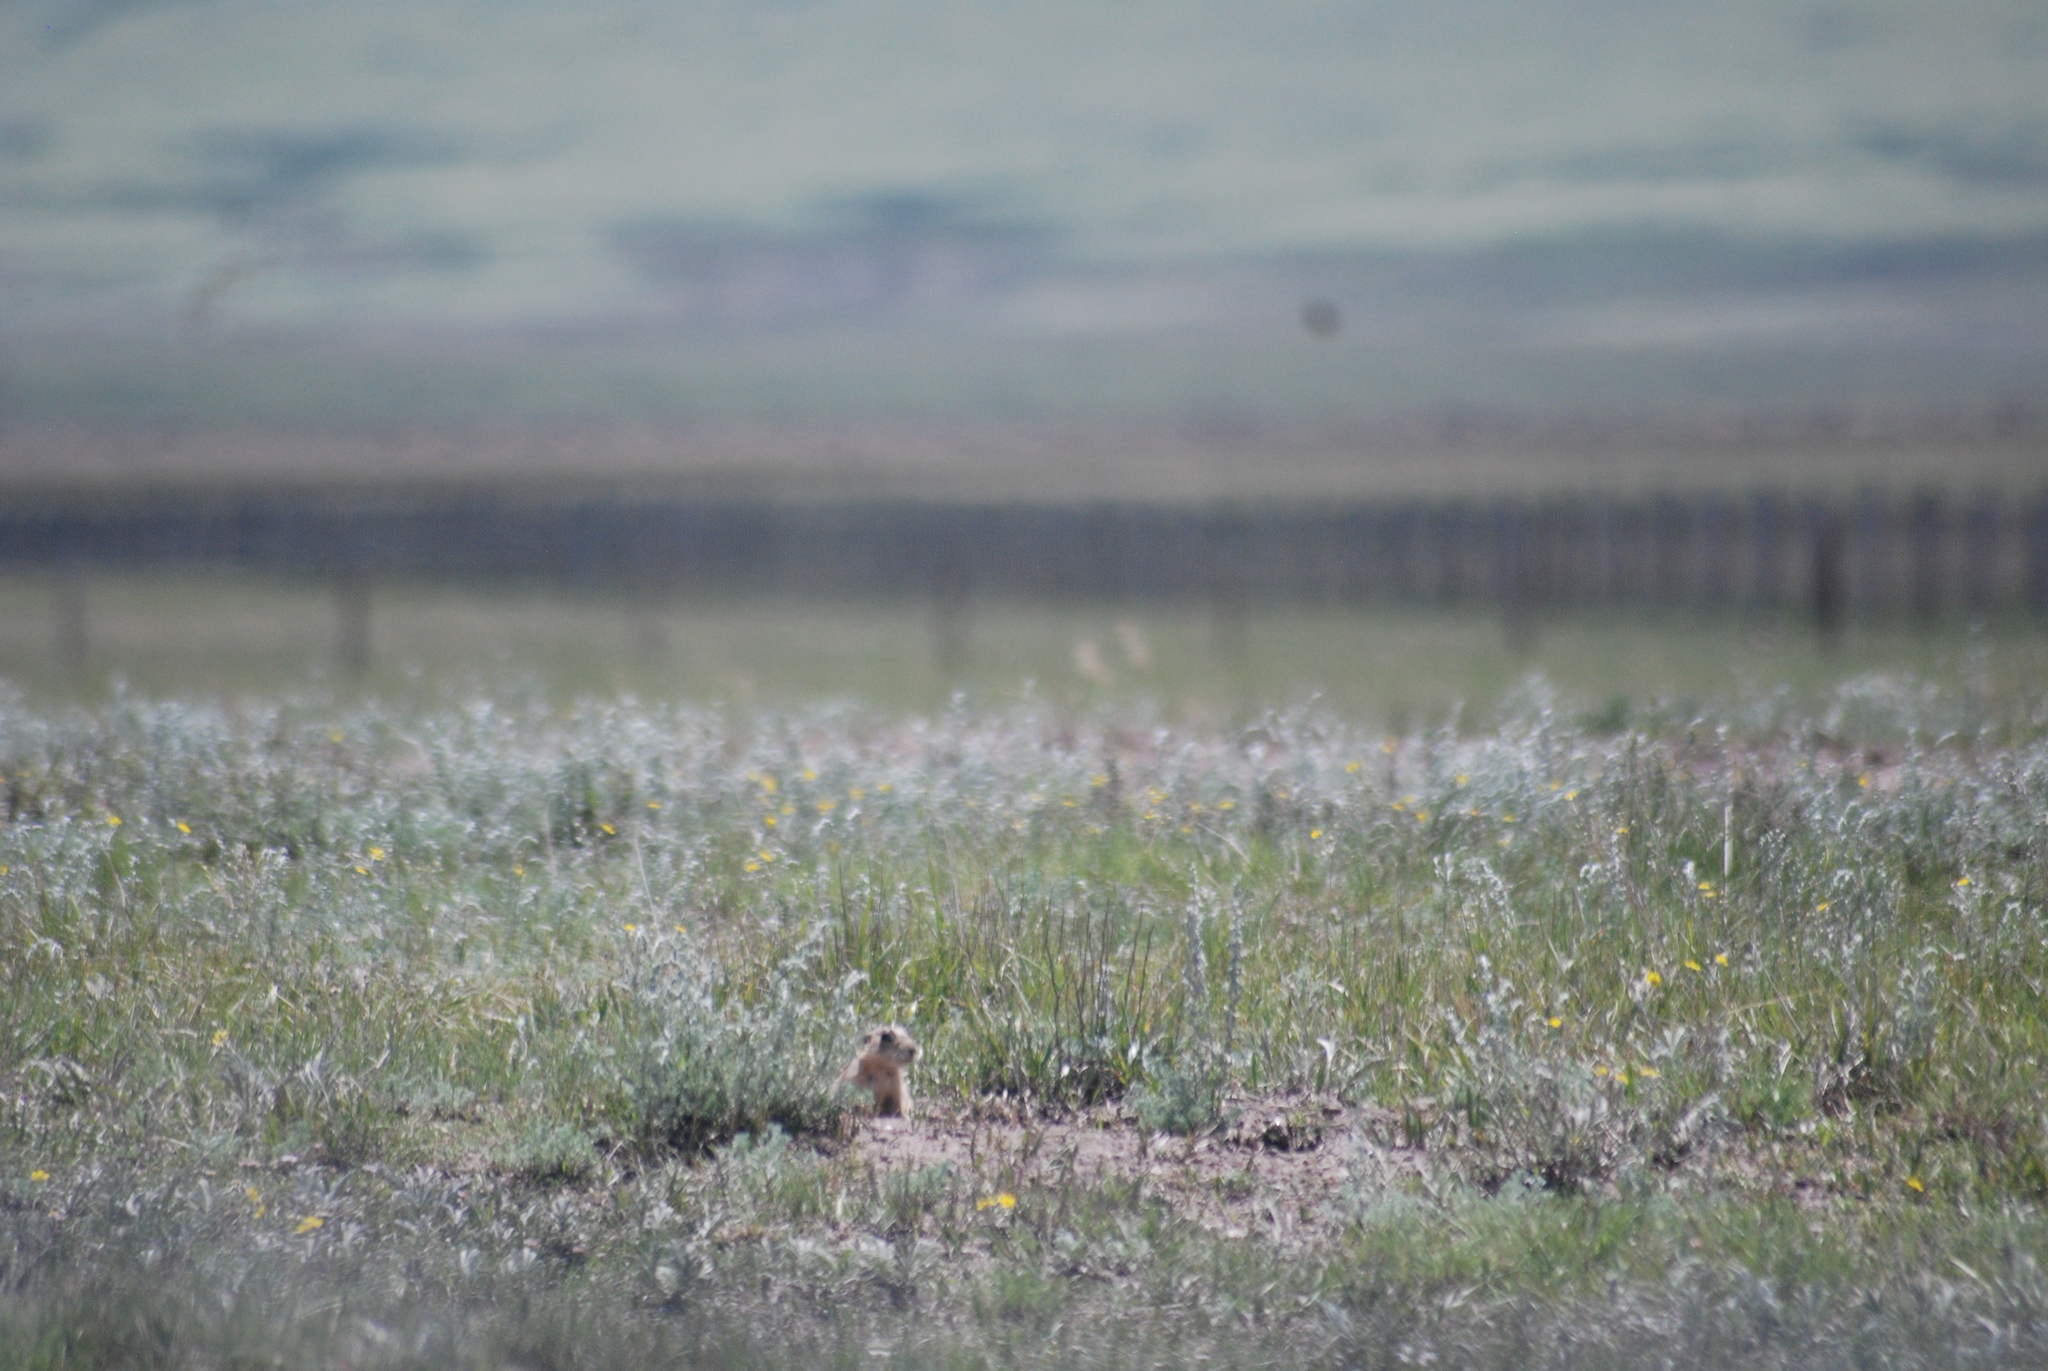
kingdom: Animalia
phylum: Chordata
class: Mammalia
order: Rodentia
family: Sciuridae
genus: Cynomys
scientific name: Cynomys gunnisoni
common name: Gunnison's prairie dog
